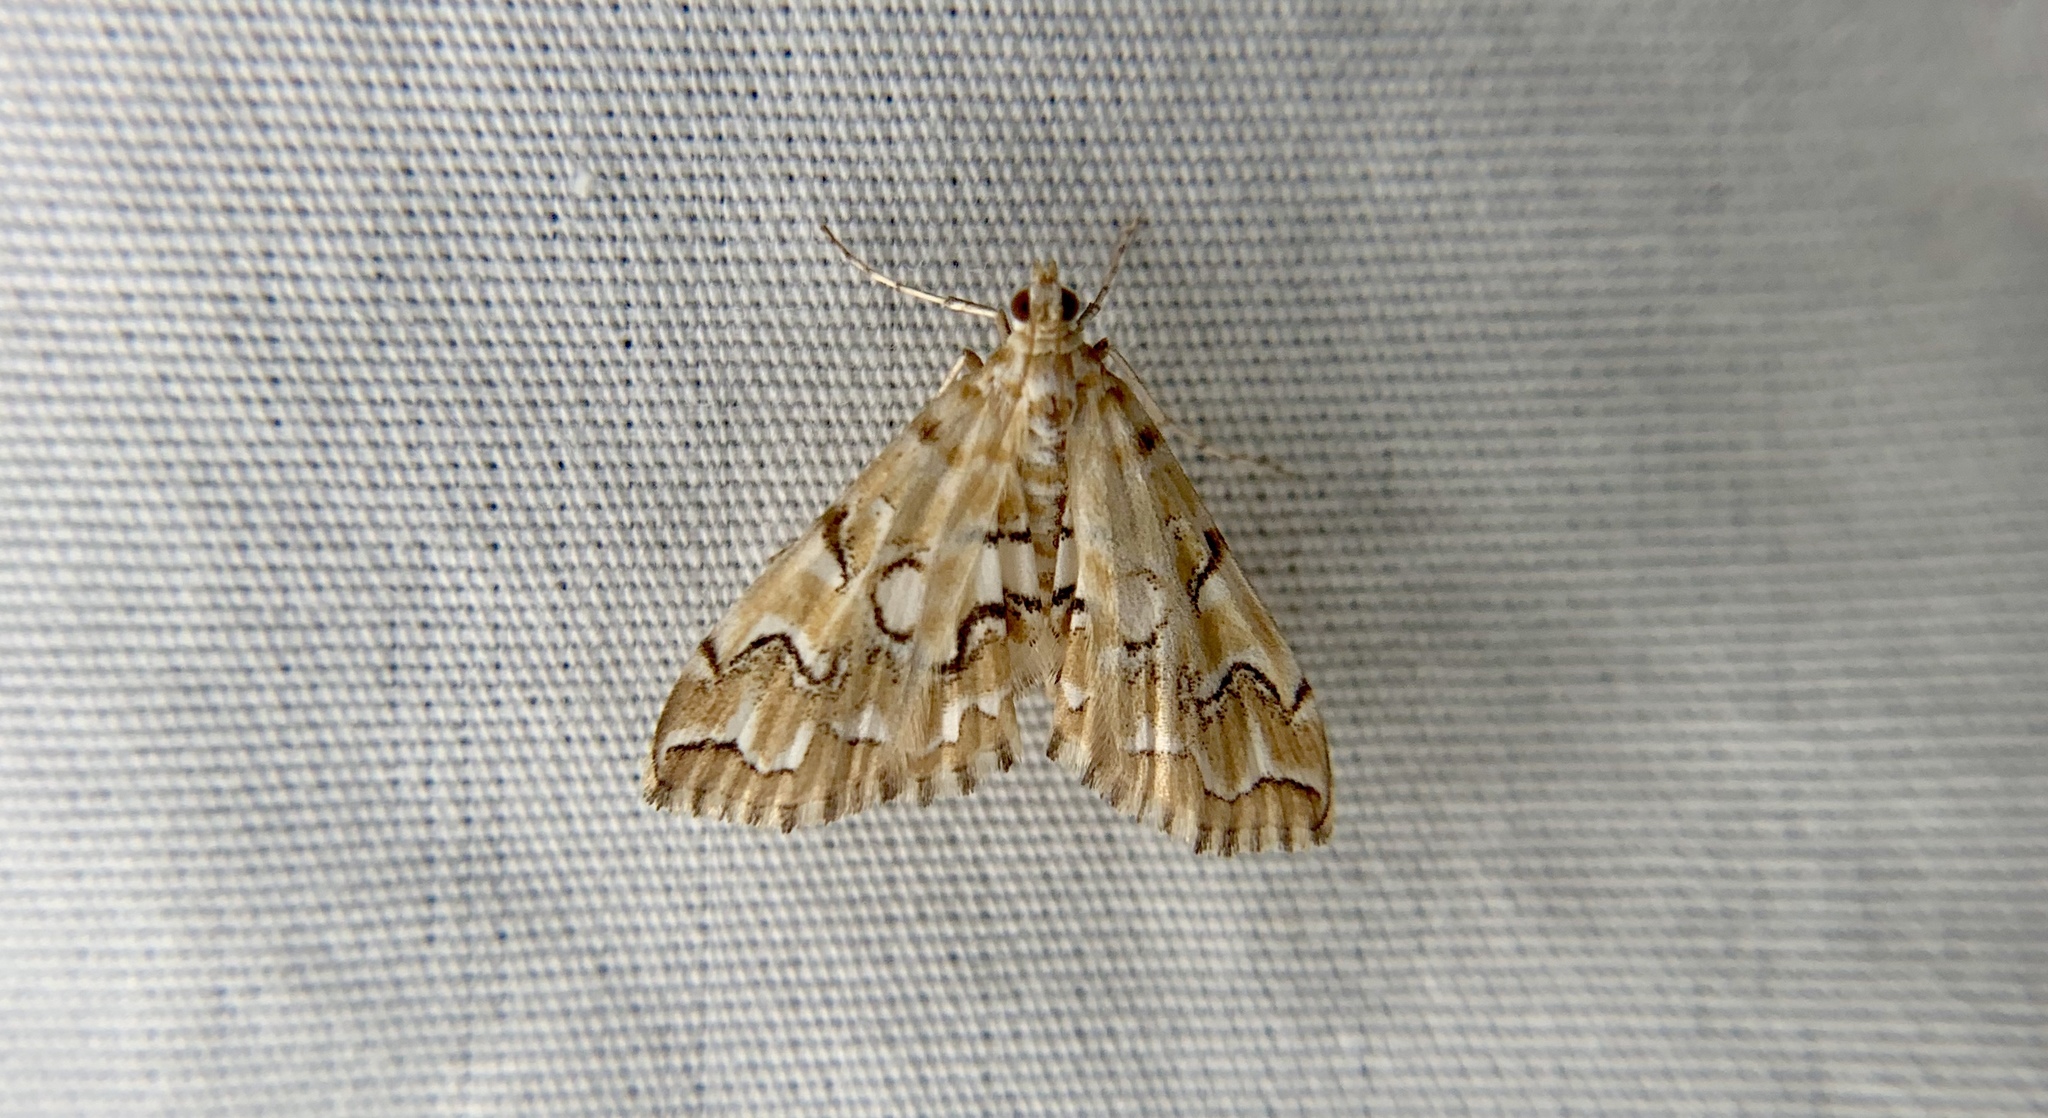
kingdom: Animalia
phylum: Arthropoda
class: Insecta
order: Lepidoptera
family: Crambidae
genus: Elophila
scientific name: Elophila icciusalis
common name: Pondside pyralid moth
